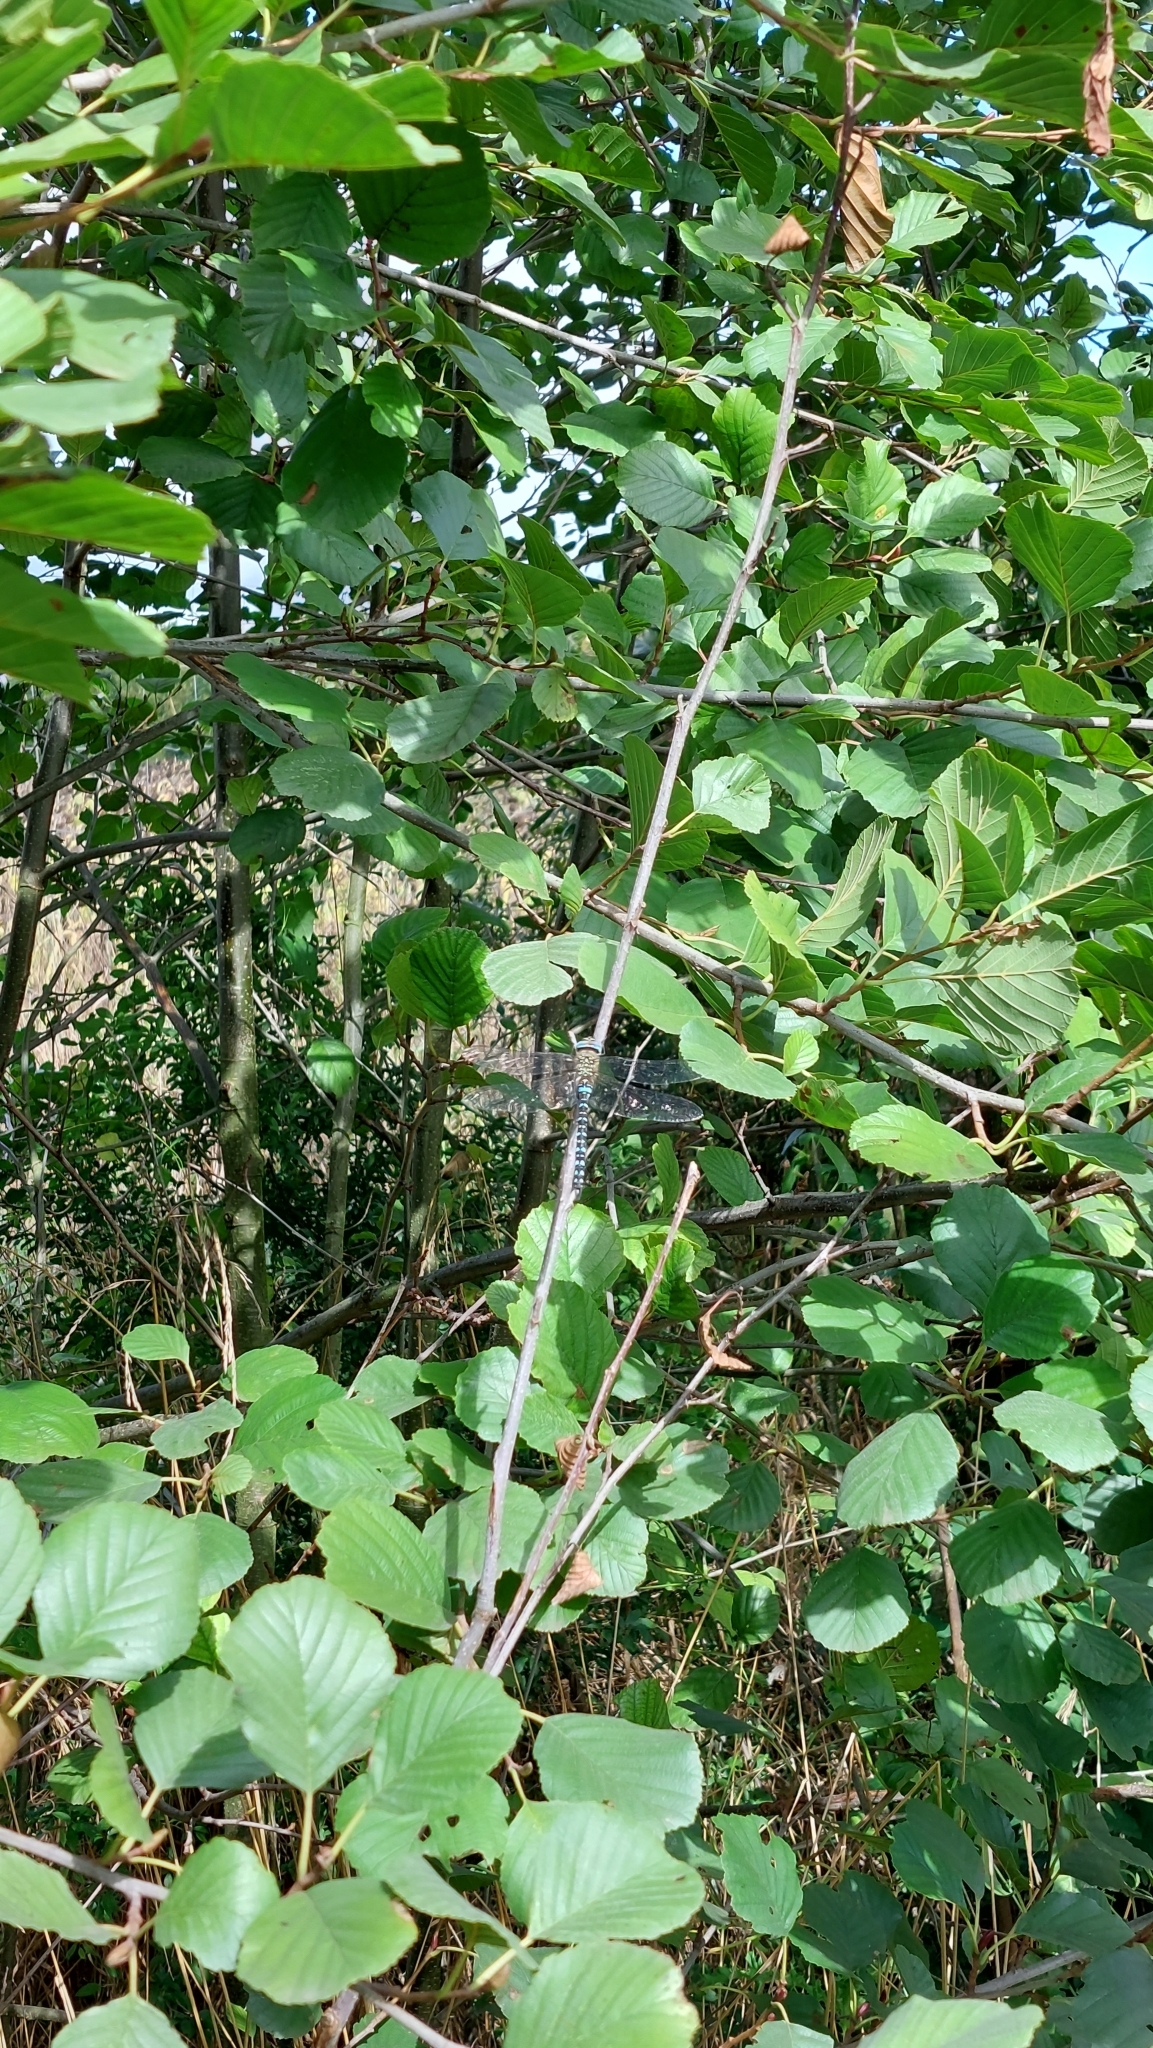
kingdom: Animalia
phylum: Arthropoda
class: Insecta
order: Odonata
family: Aeshnidae
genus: Aeshna
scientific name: Aeshna mixta
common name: Migrant hawker
